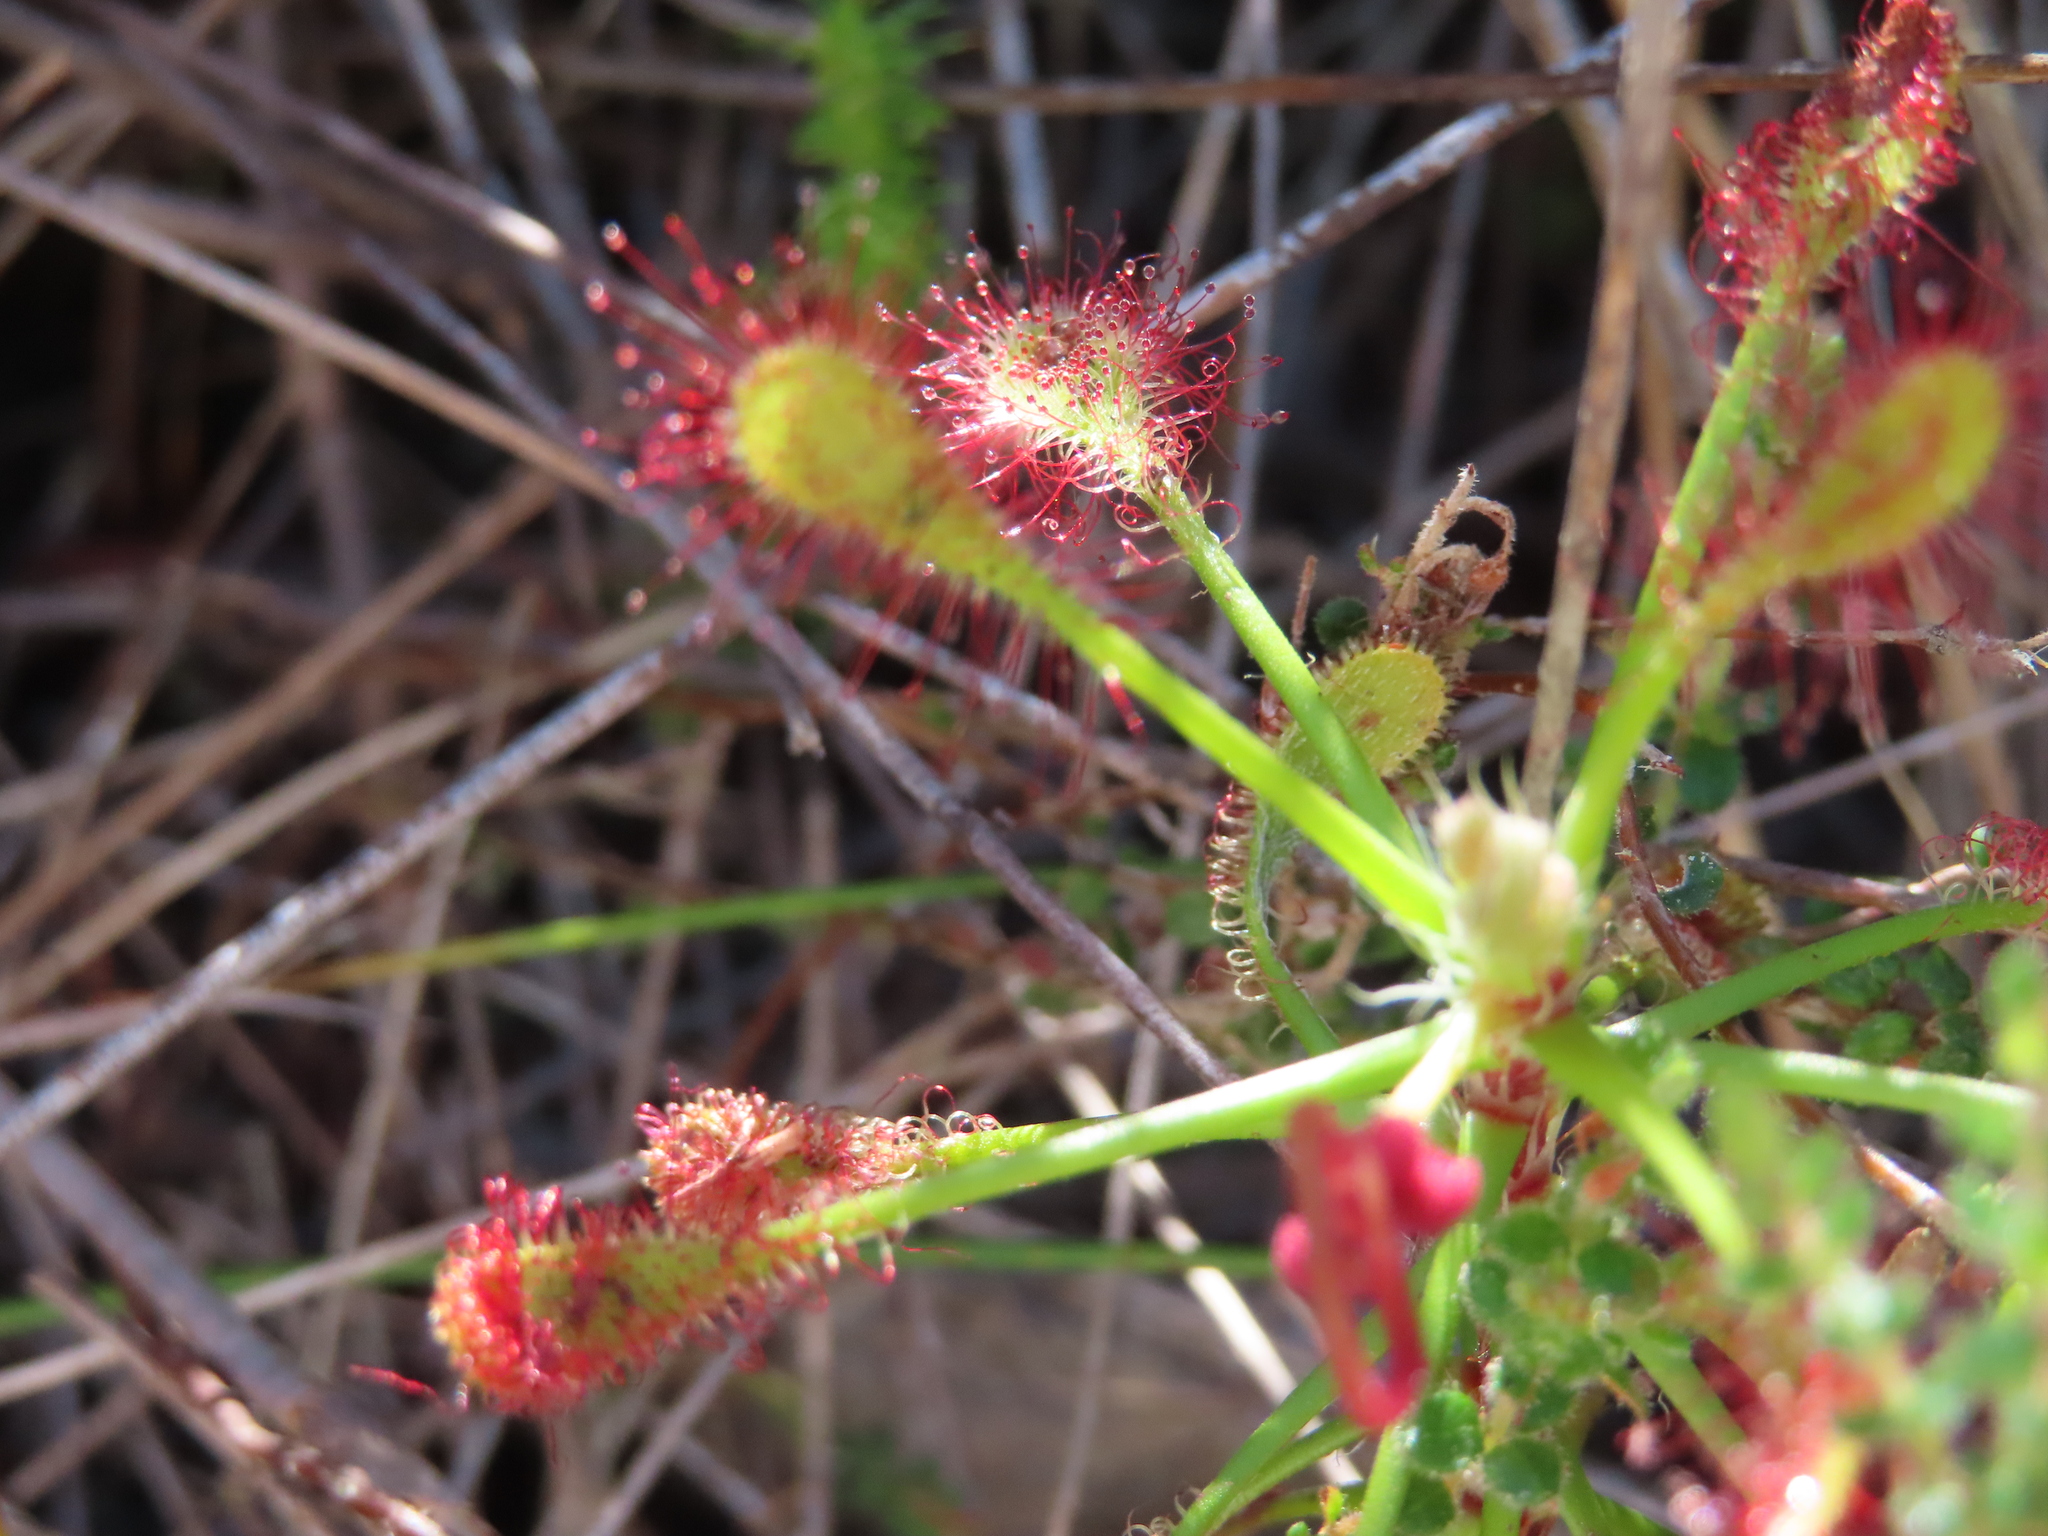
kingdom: Plantae
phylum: Tracheophyta
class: Magnoliopsida
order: Caryophyllales
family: Droseraceae
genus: Drosera
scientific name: Drosera glabripes
